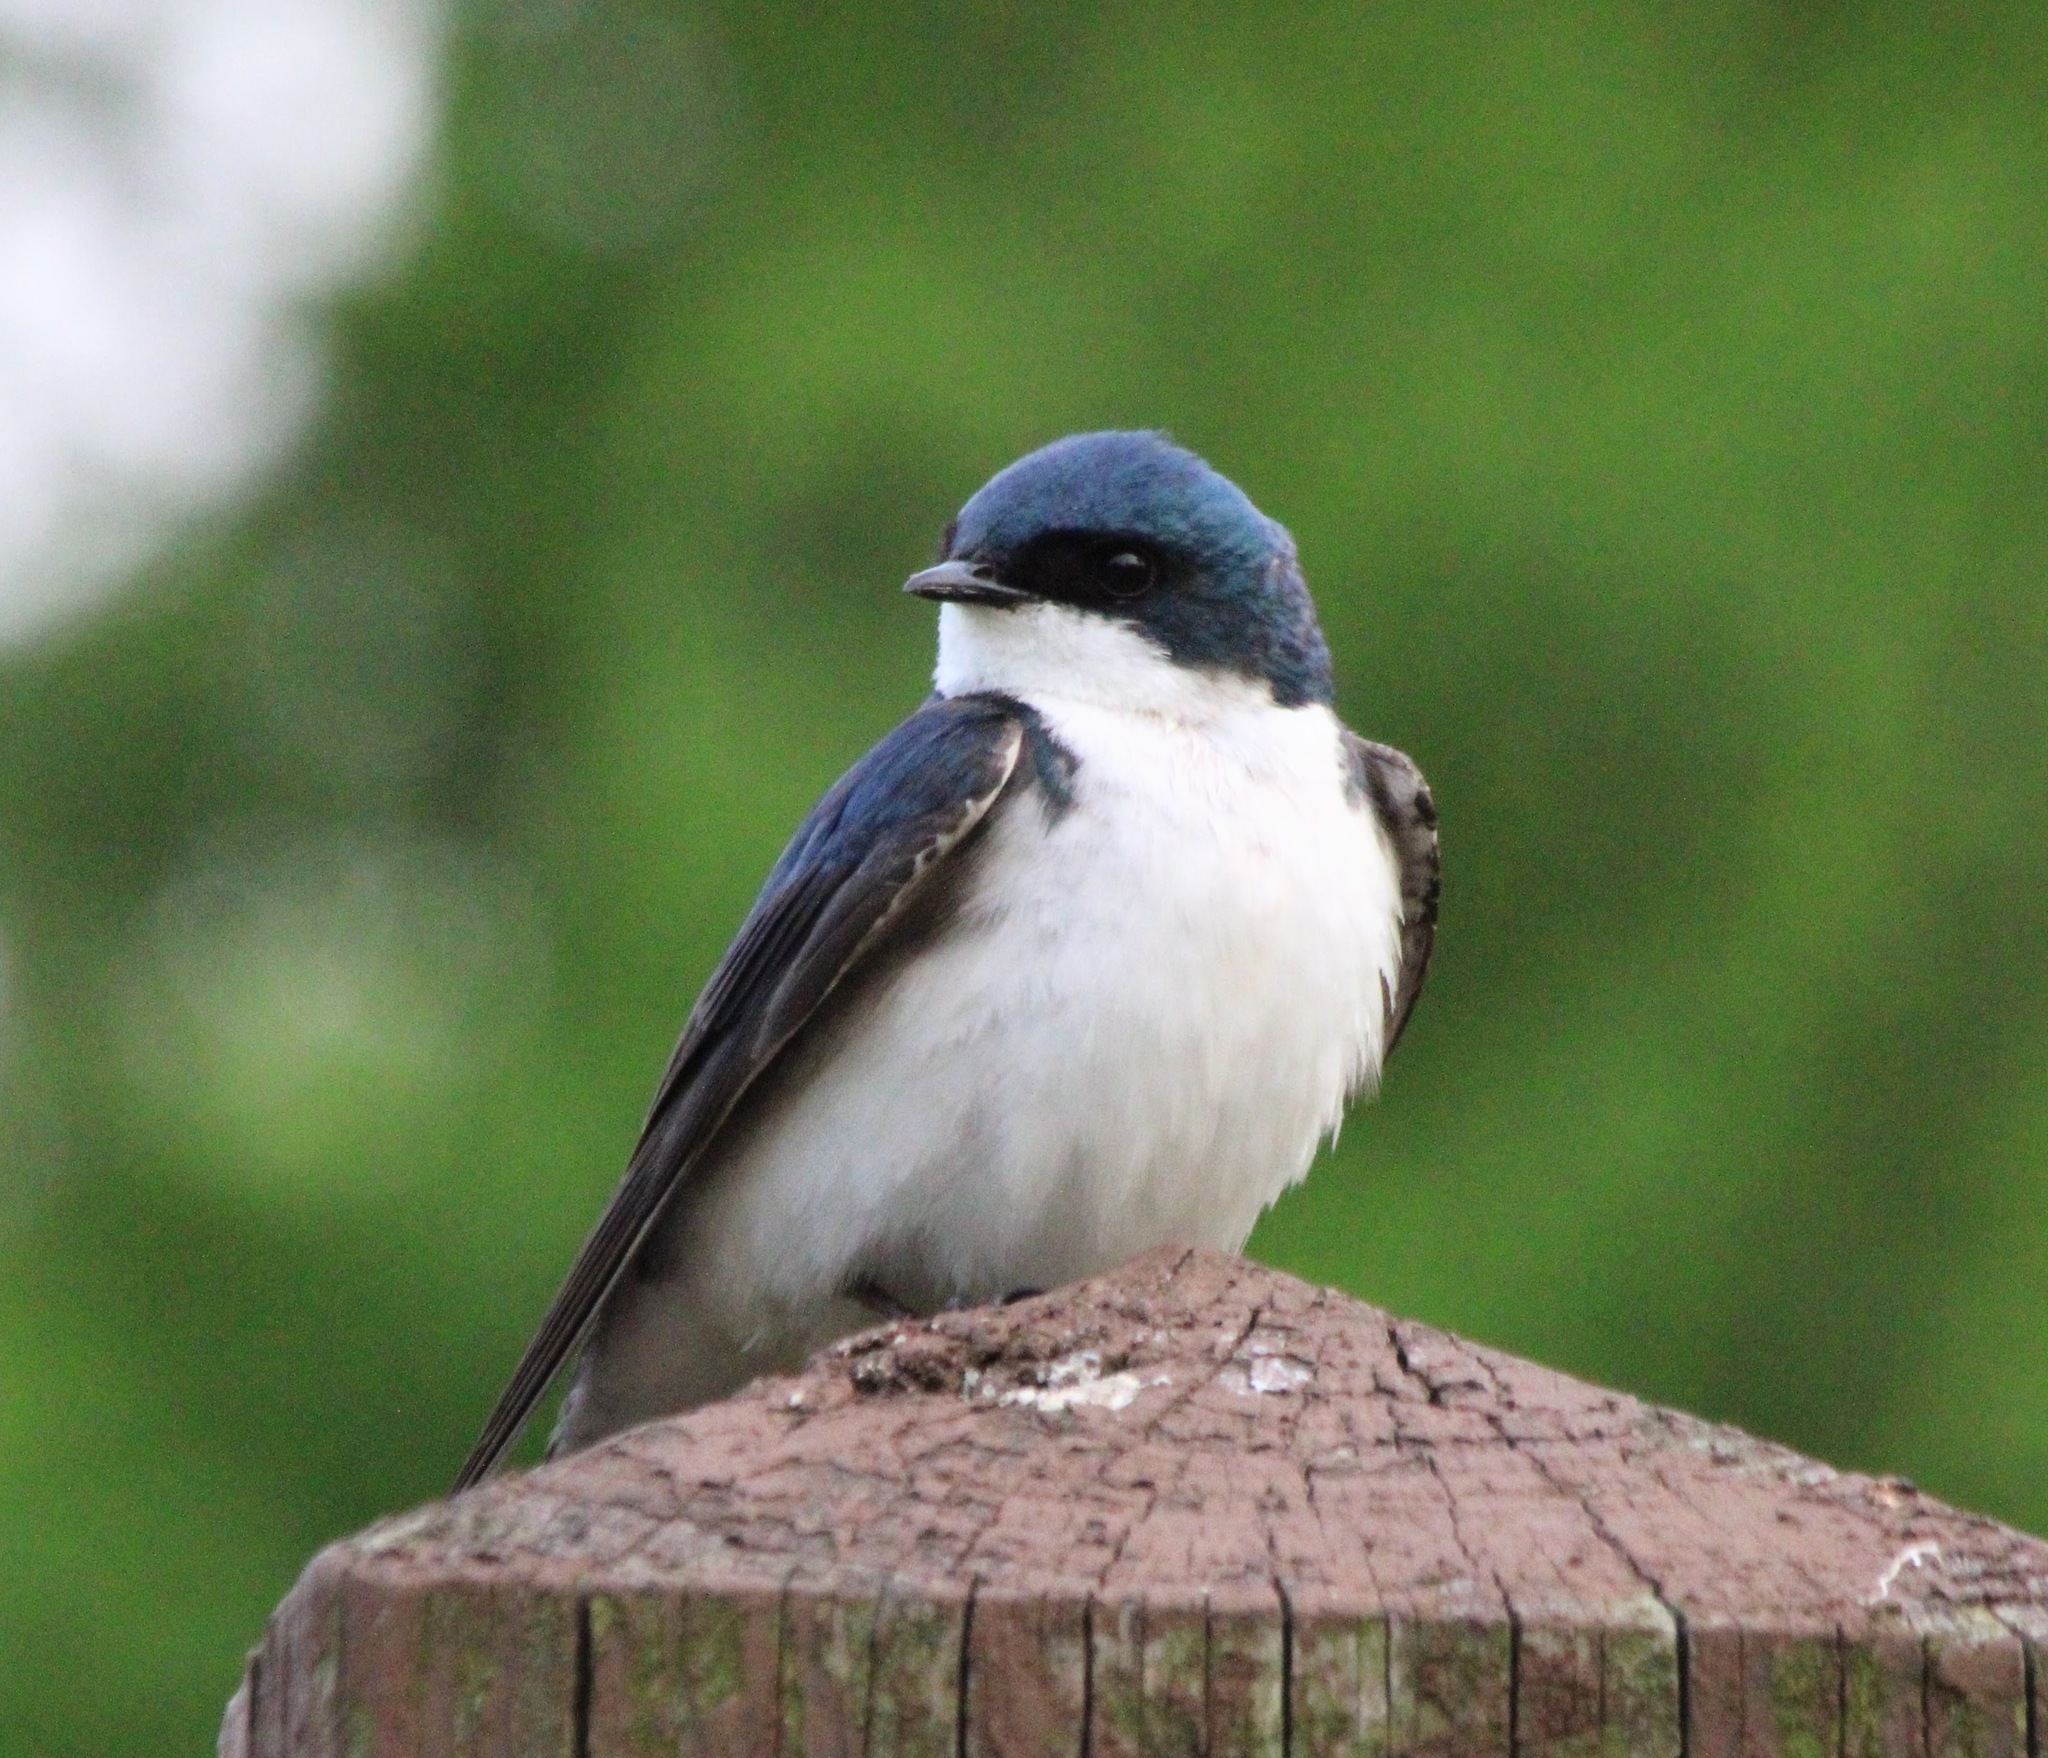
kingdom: Animalia
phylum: Chordata
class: Aves
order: Passeriformes
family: Hirundinidae
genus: Tachycineta
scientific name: Tachycineta bicolor
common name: Tree swallow
